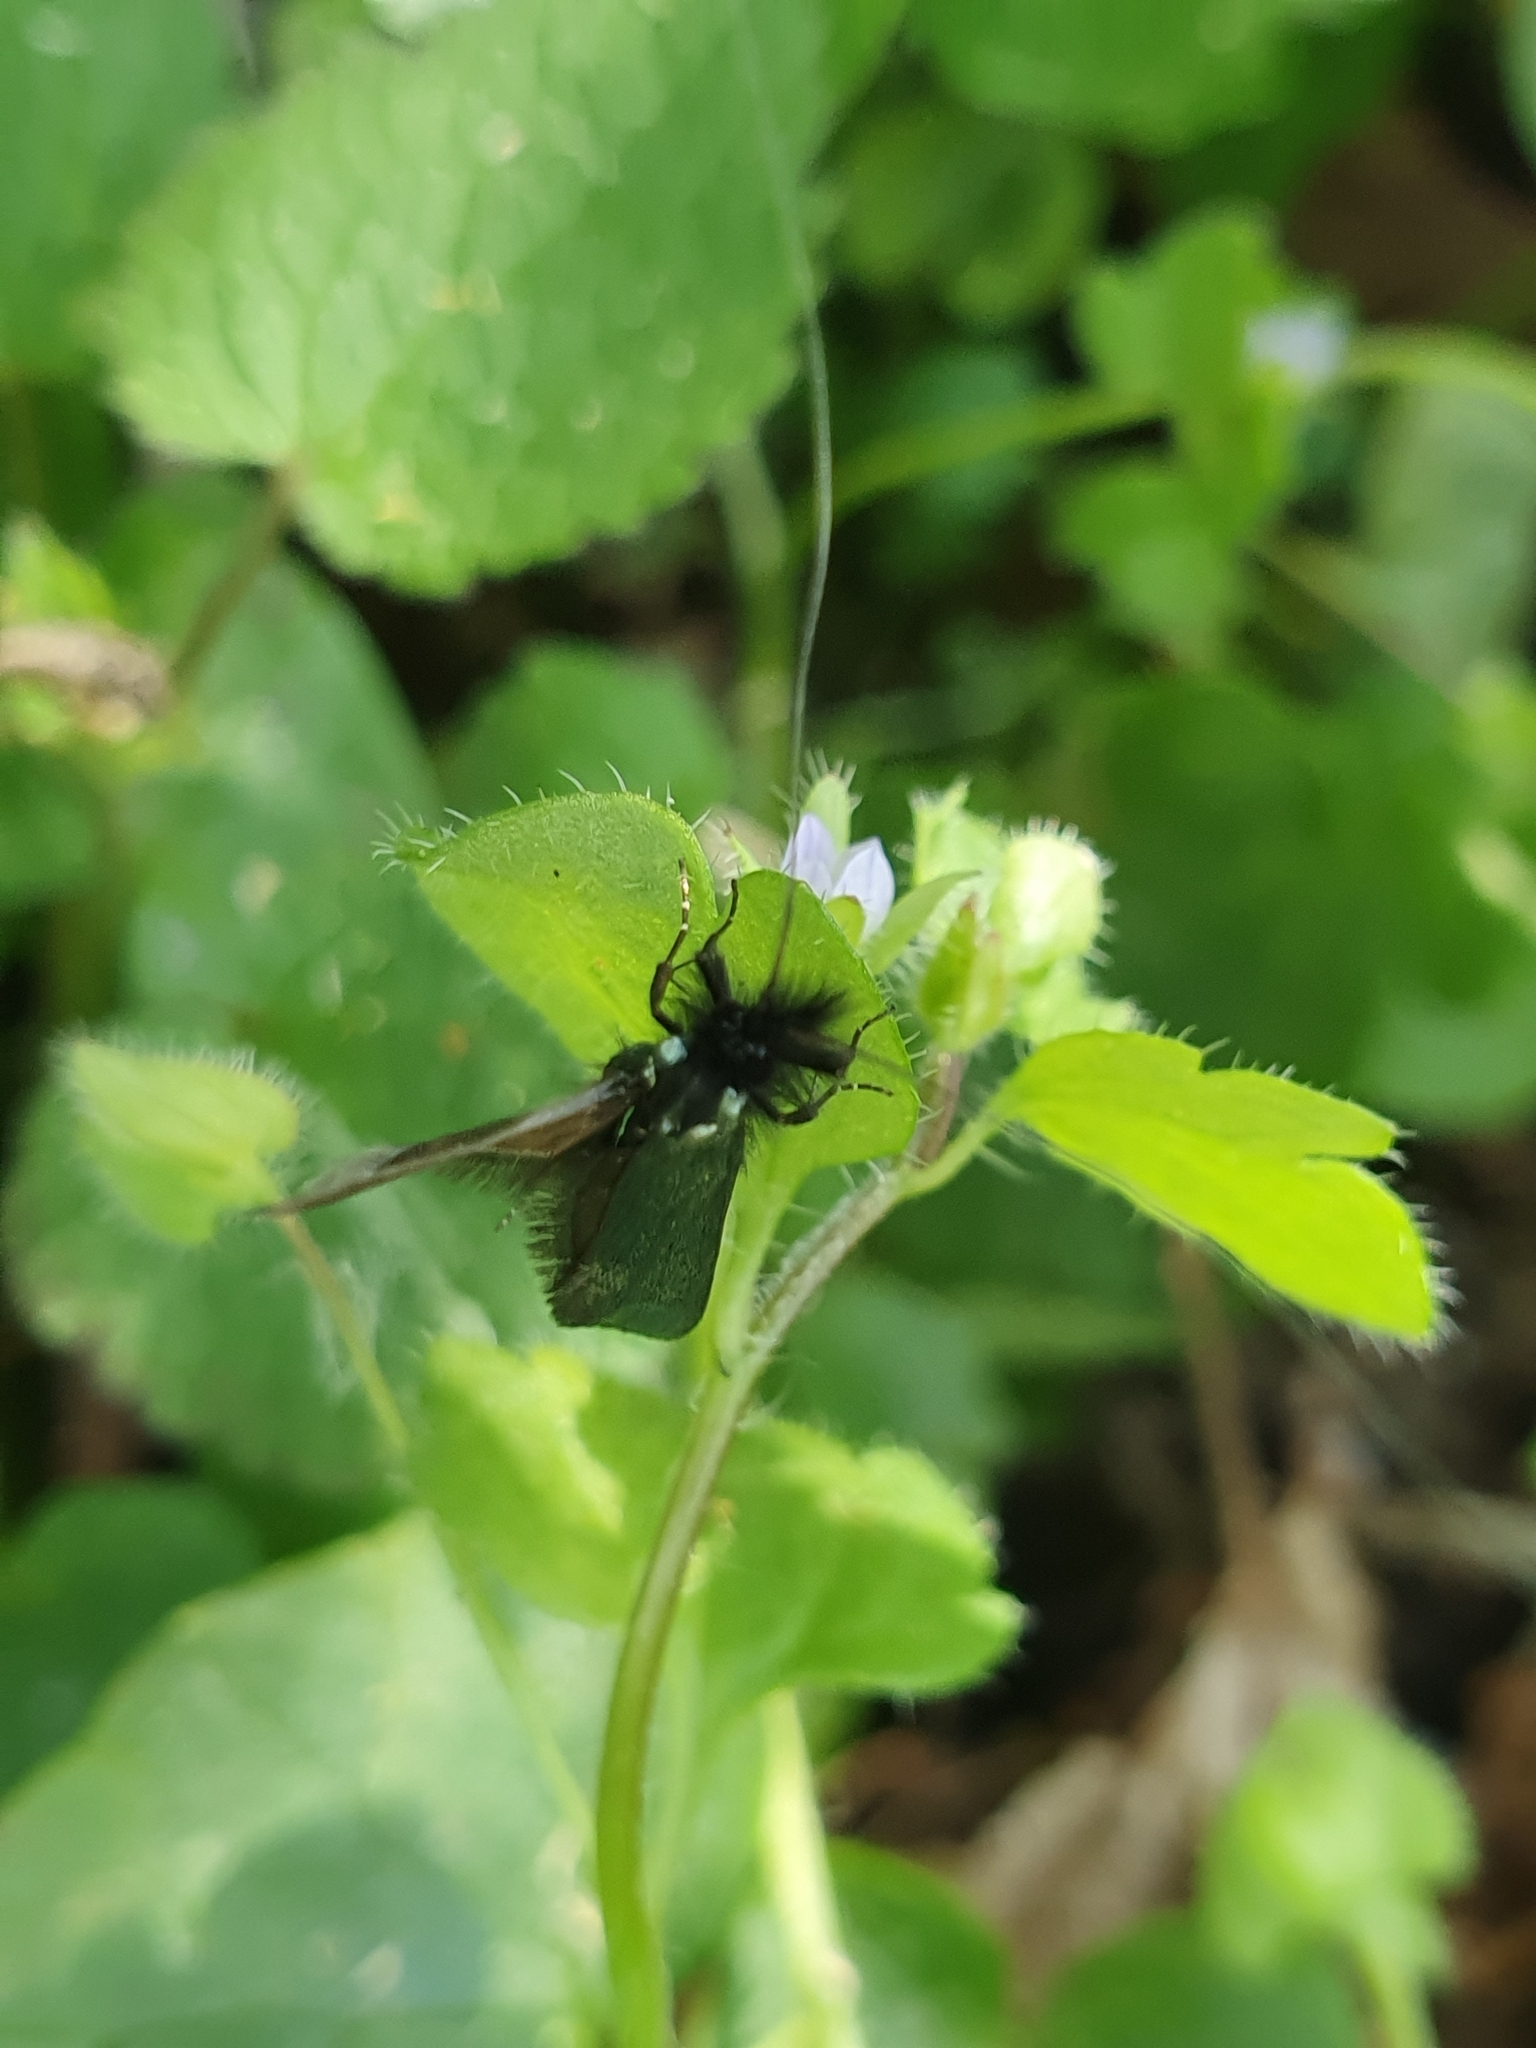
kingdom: Animalia
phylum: Arthropoda
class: Insecta
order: Lepidoptera
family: Adelidae
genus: Adela
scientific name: Adela viridella
